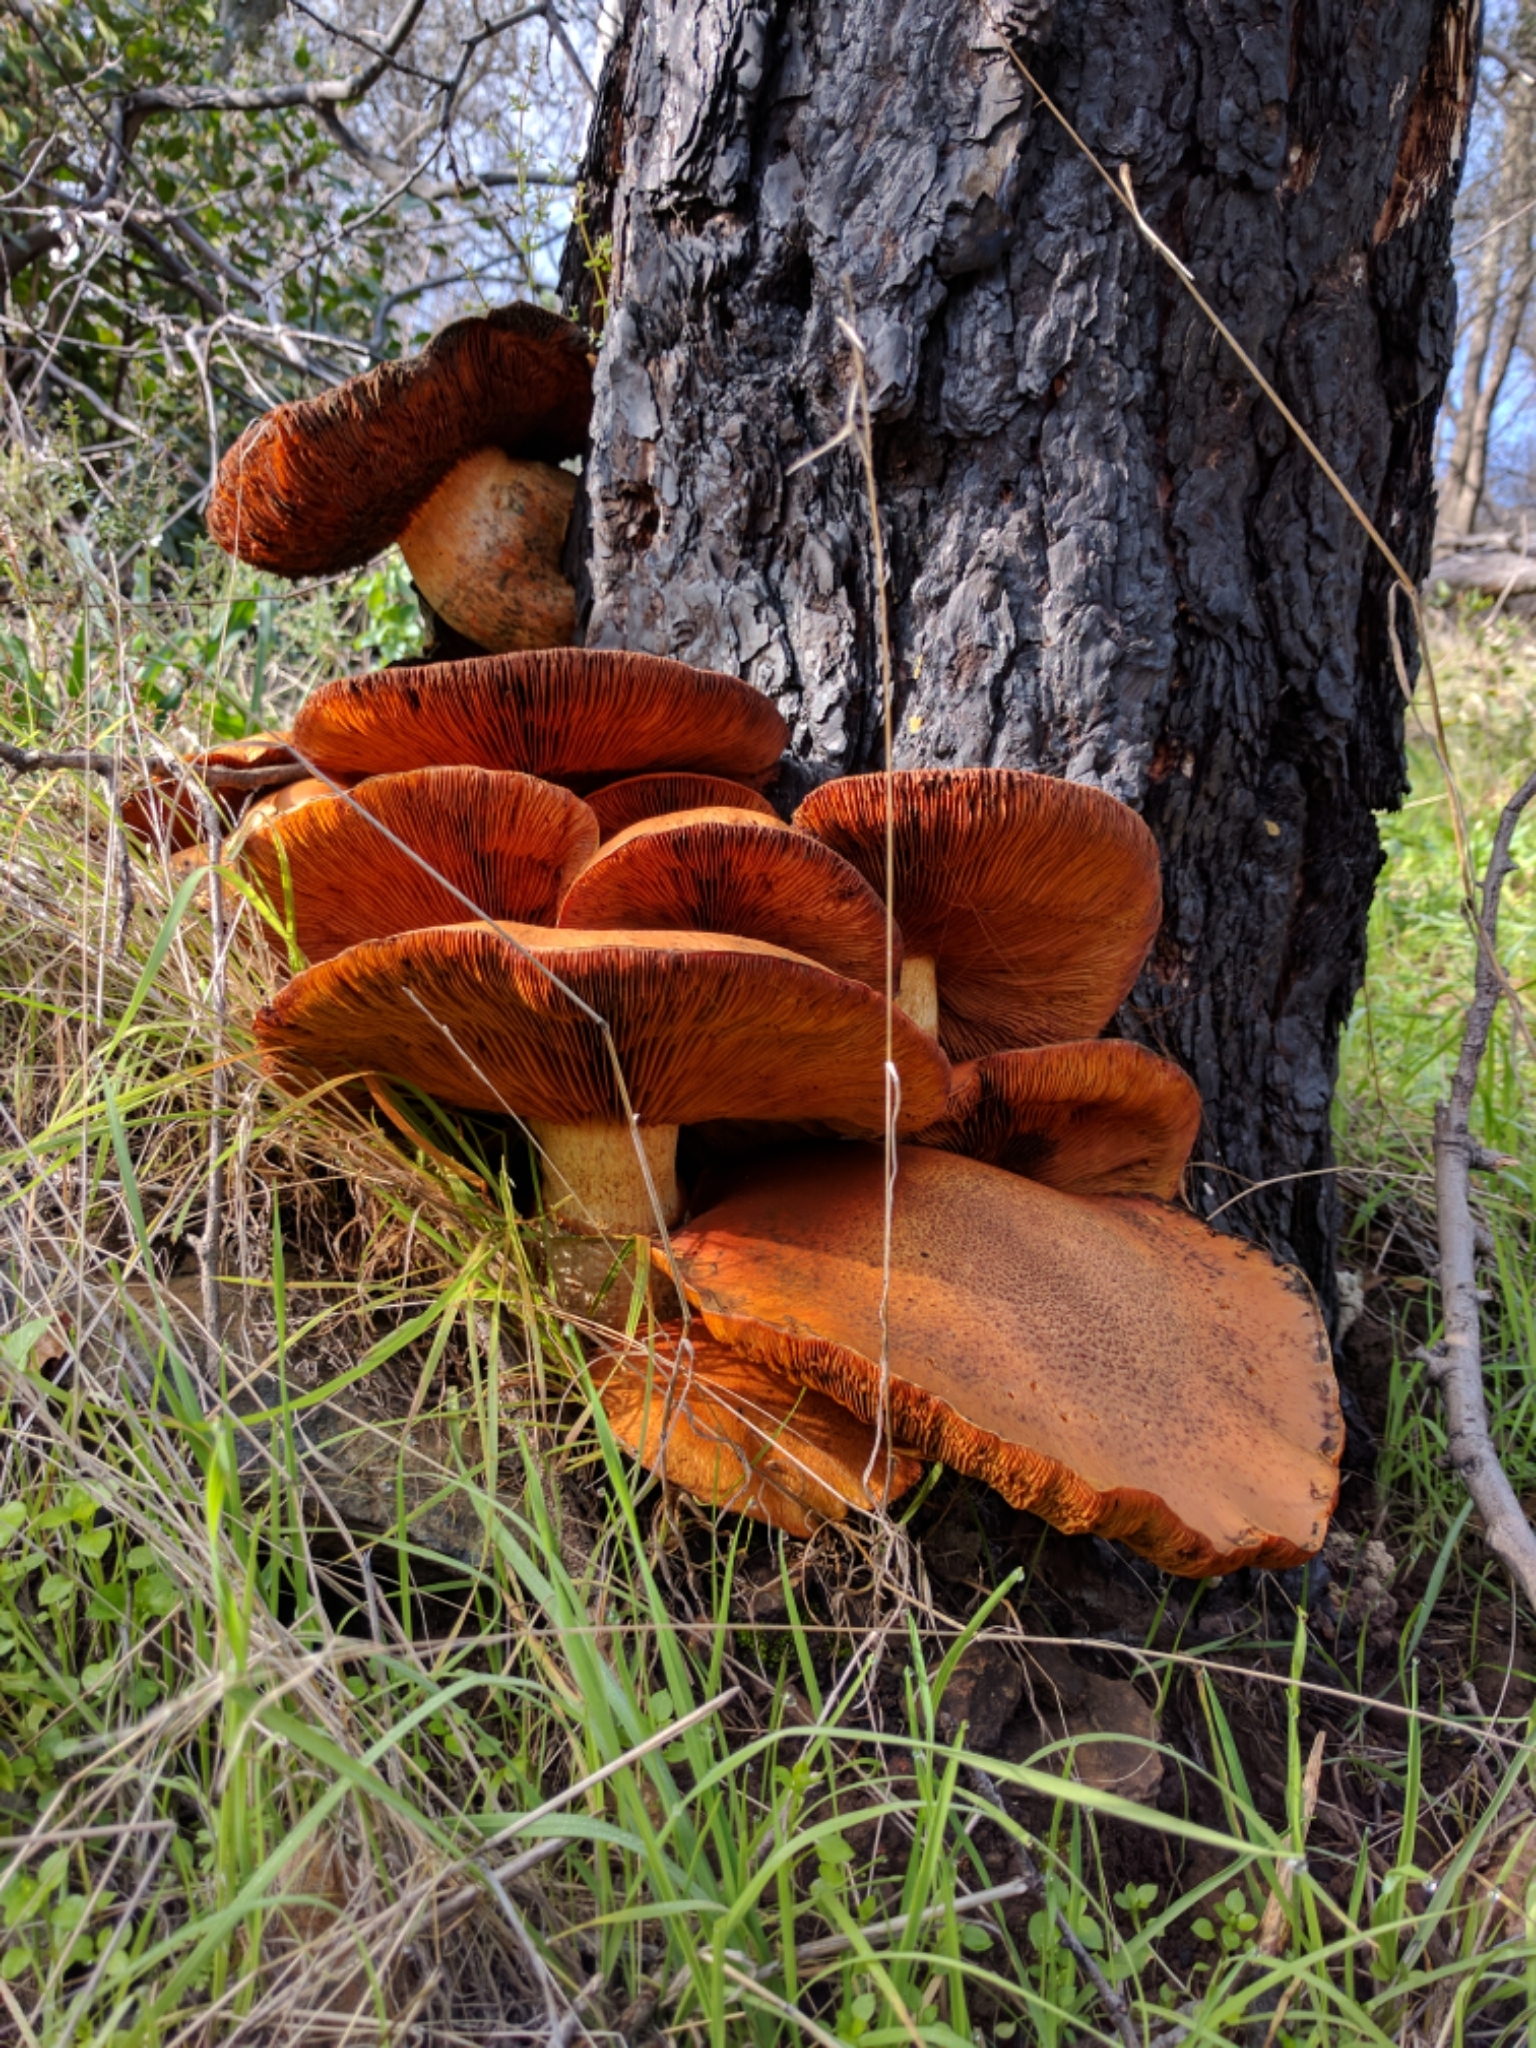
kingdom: Fungi
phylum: Basidiomycota
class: Agaricomycetes
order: Agaricales
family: Hymenogastraceae
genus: Gymnopilus
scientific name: Gymnopilus ventricosus
